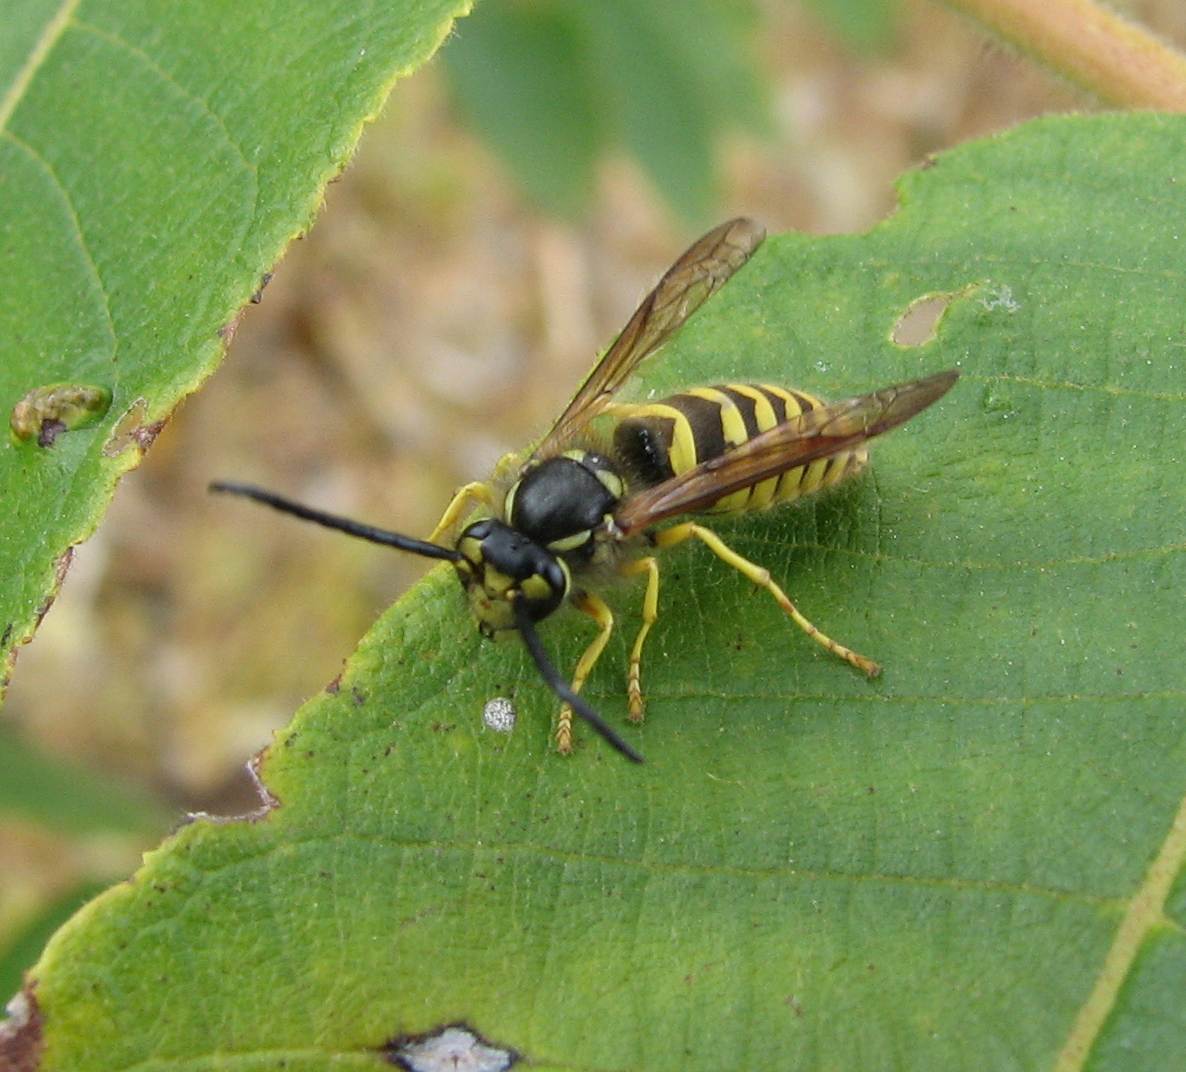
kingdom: Animalia
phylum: Arthropoda
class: Insecta
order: Hymenoptera
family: Vespidae
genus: Vespula
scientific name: Vespula flavopilosa
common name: Downy yellowjacket
